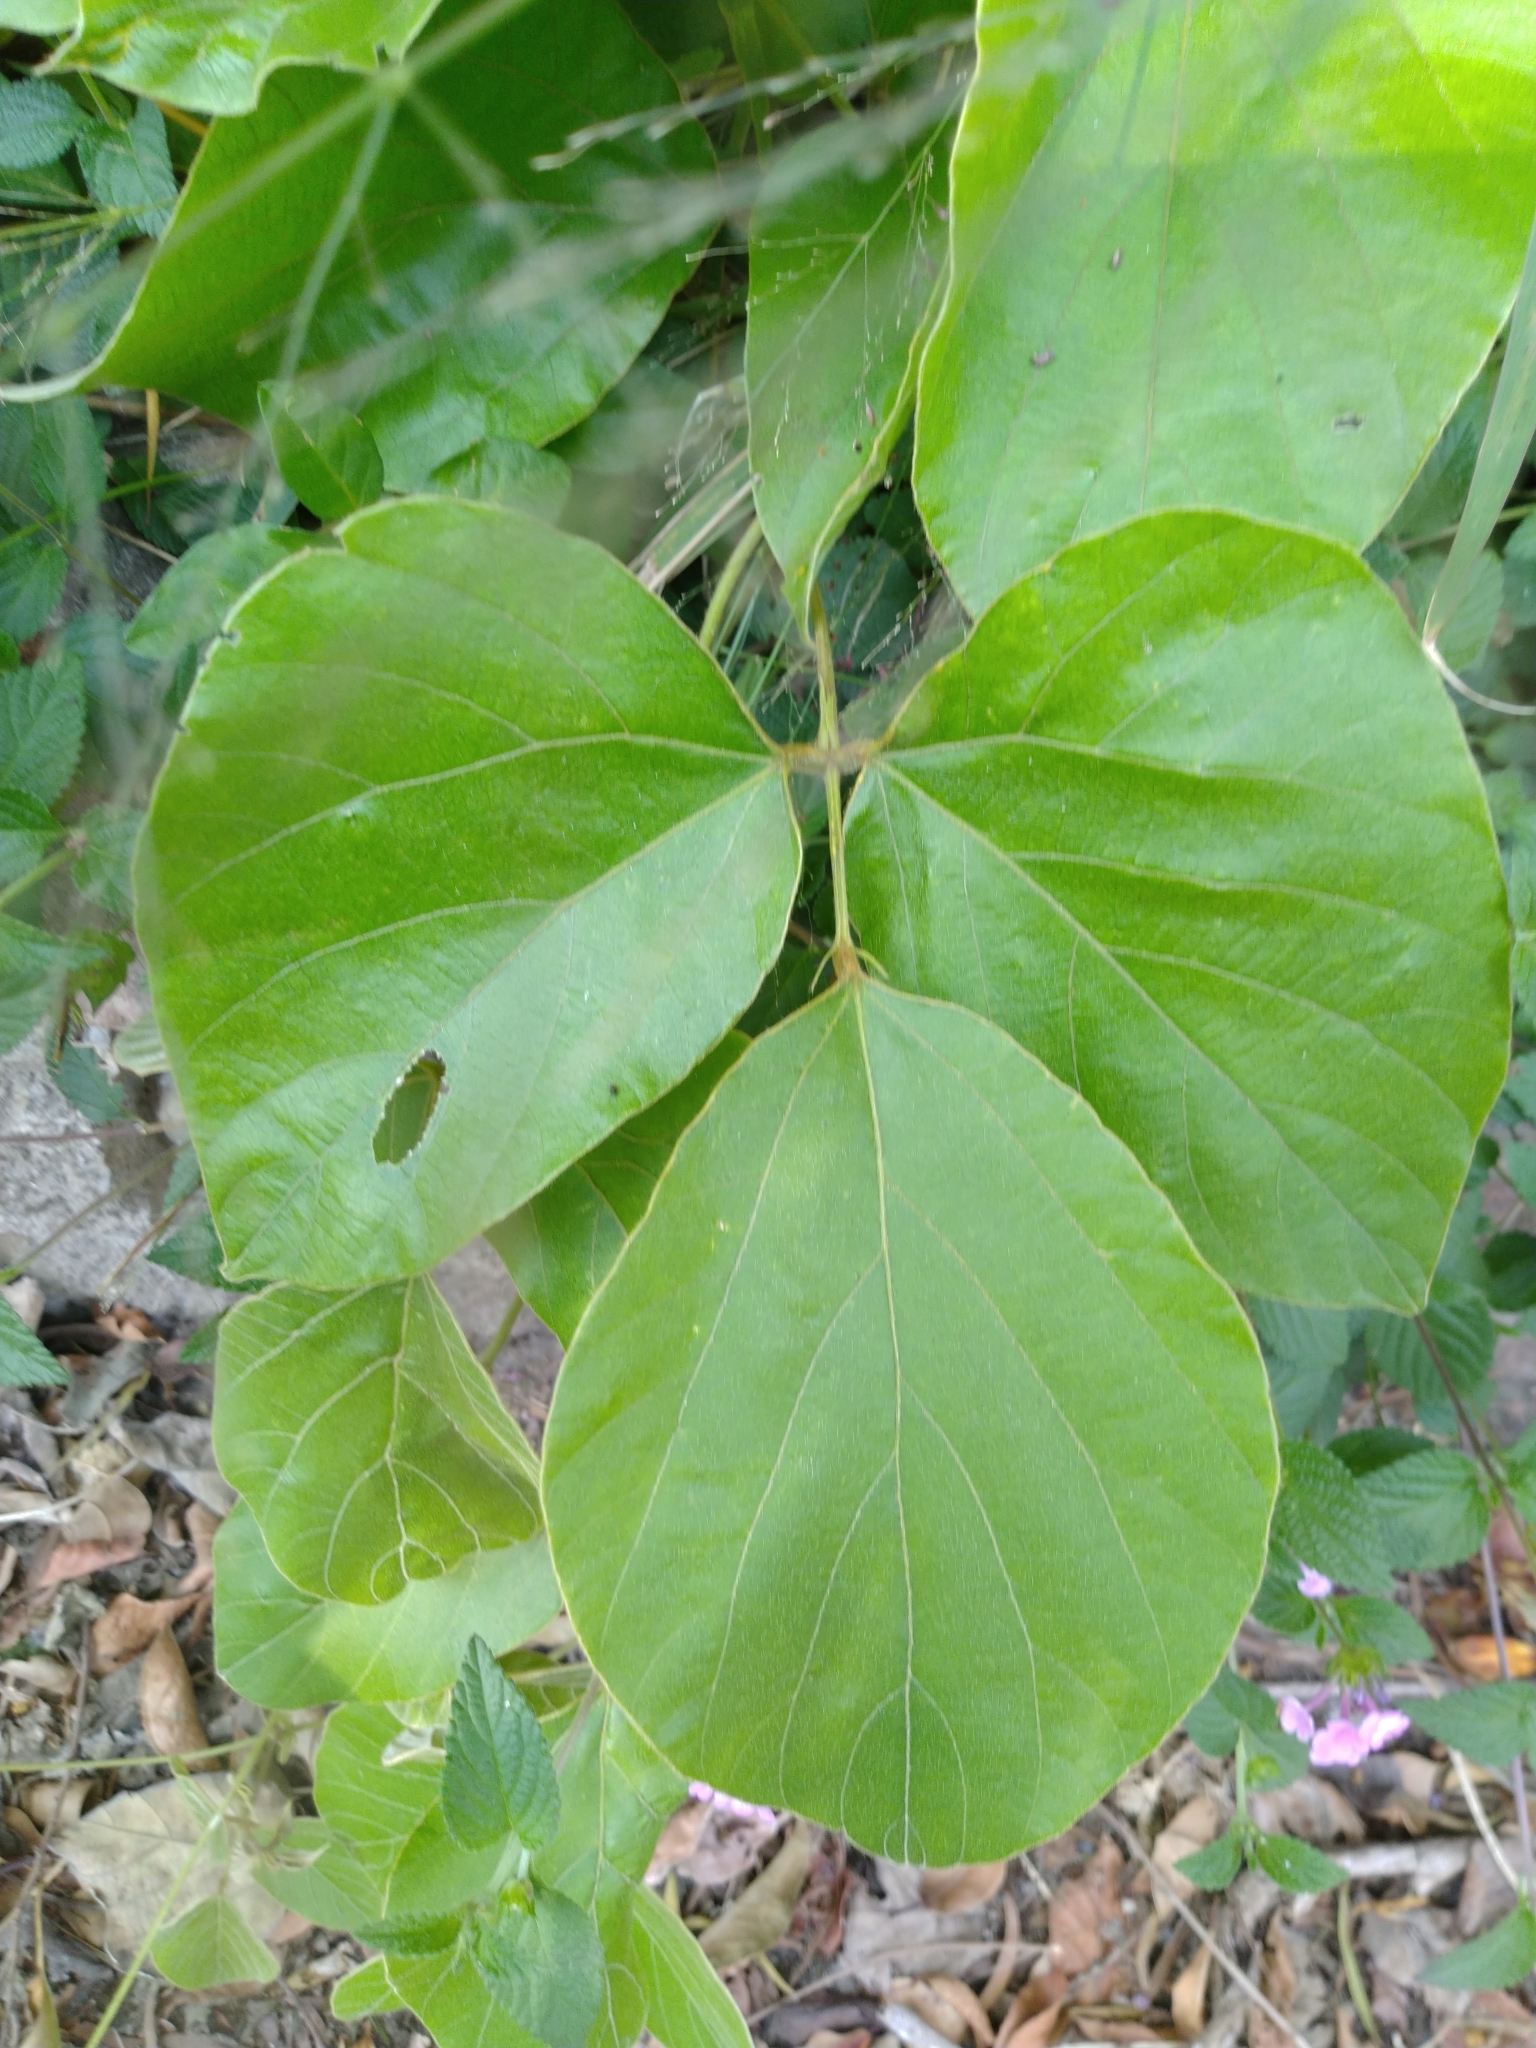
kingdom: Plantae
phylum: Tracheophyta
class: Magnoliopsida
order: Fabales
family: Fabaceae
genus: Pueraria
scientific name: Pueraria montana
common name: Kudzu
